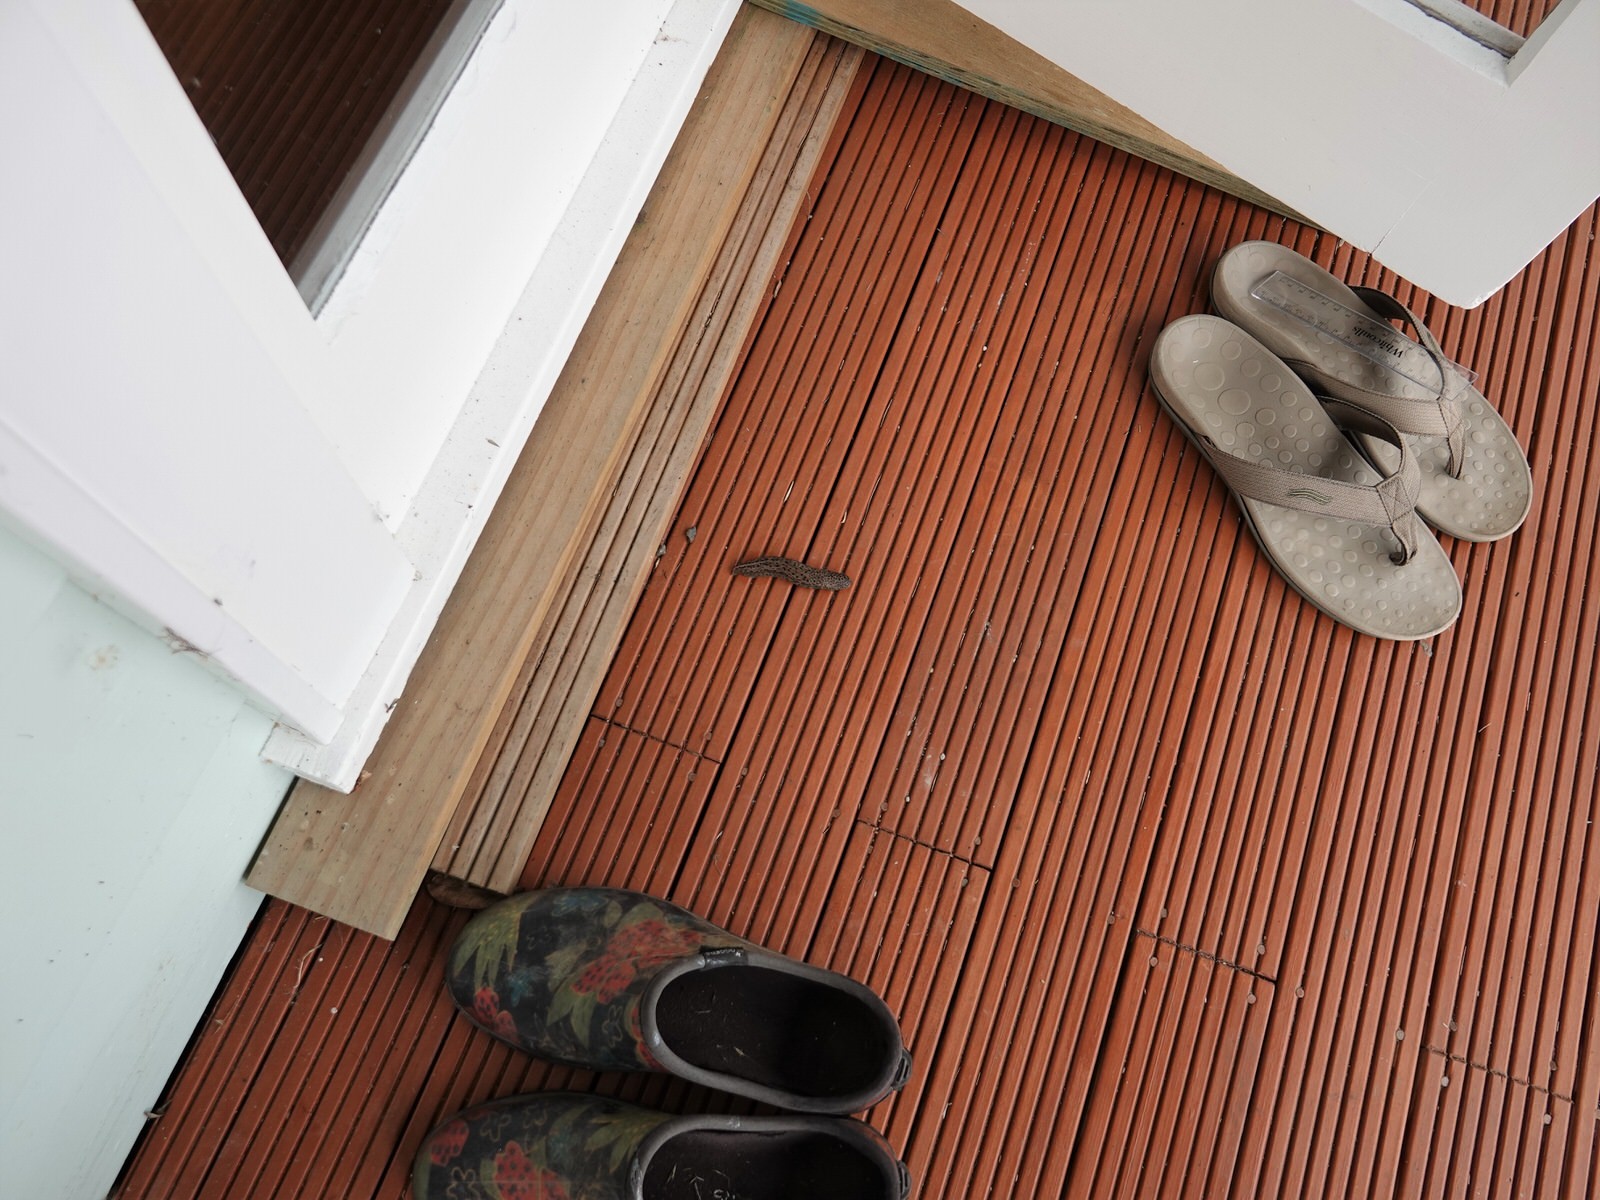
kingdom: Animalia
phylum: Mollusca
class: Gastropoda
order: Stylommatophora
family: Limacidae
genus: Limax
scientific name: Limax maximus
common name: Great grey slug
